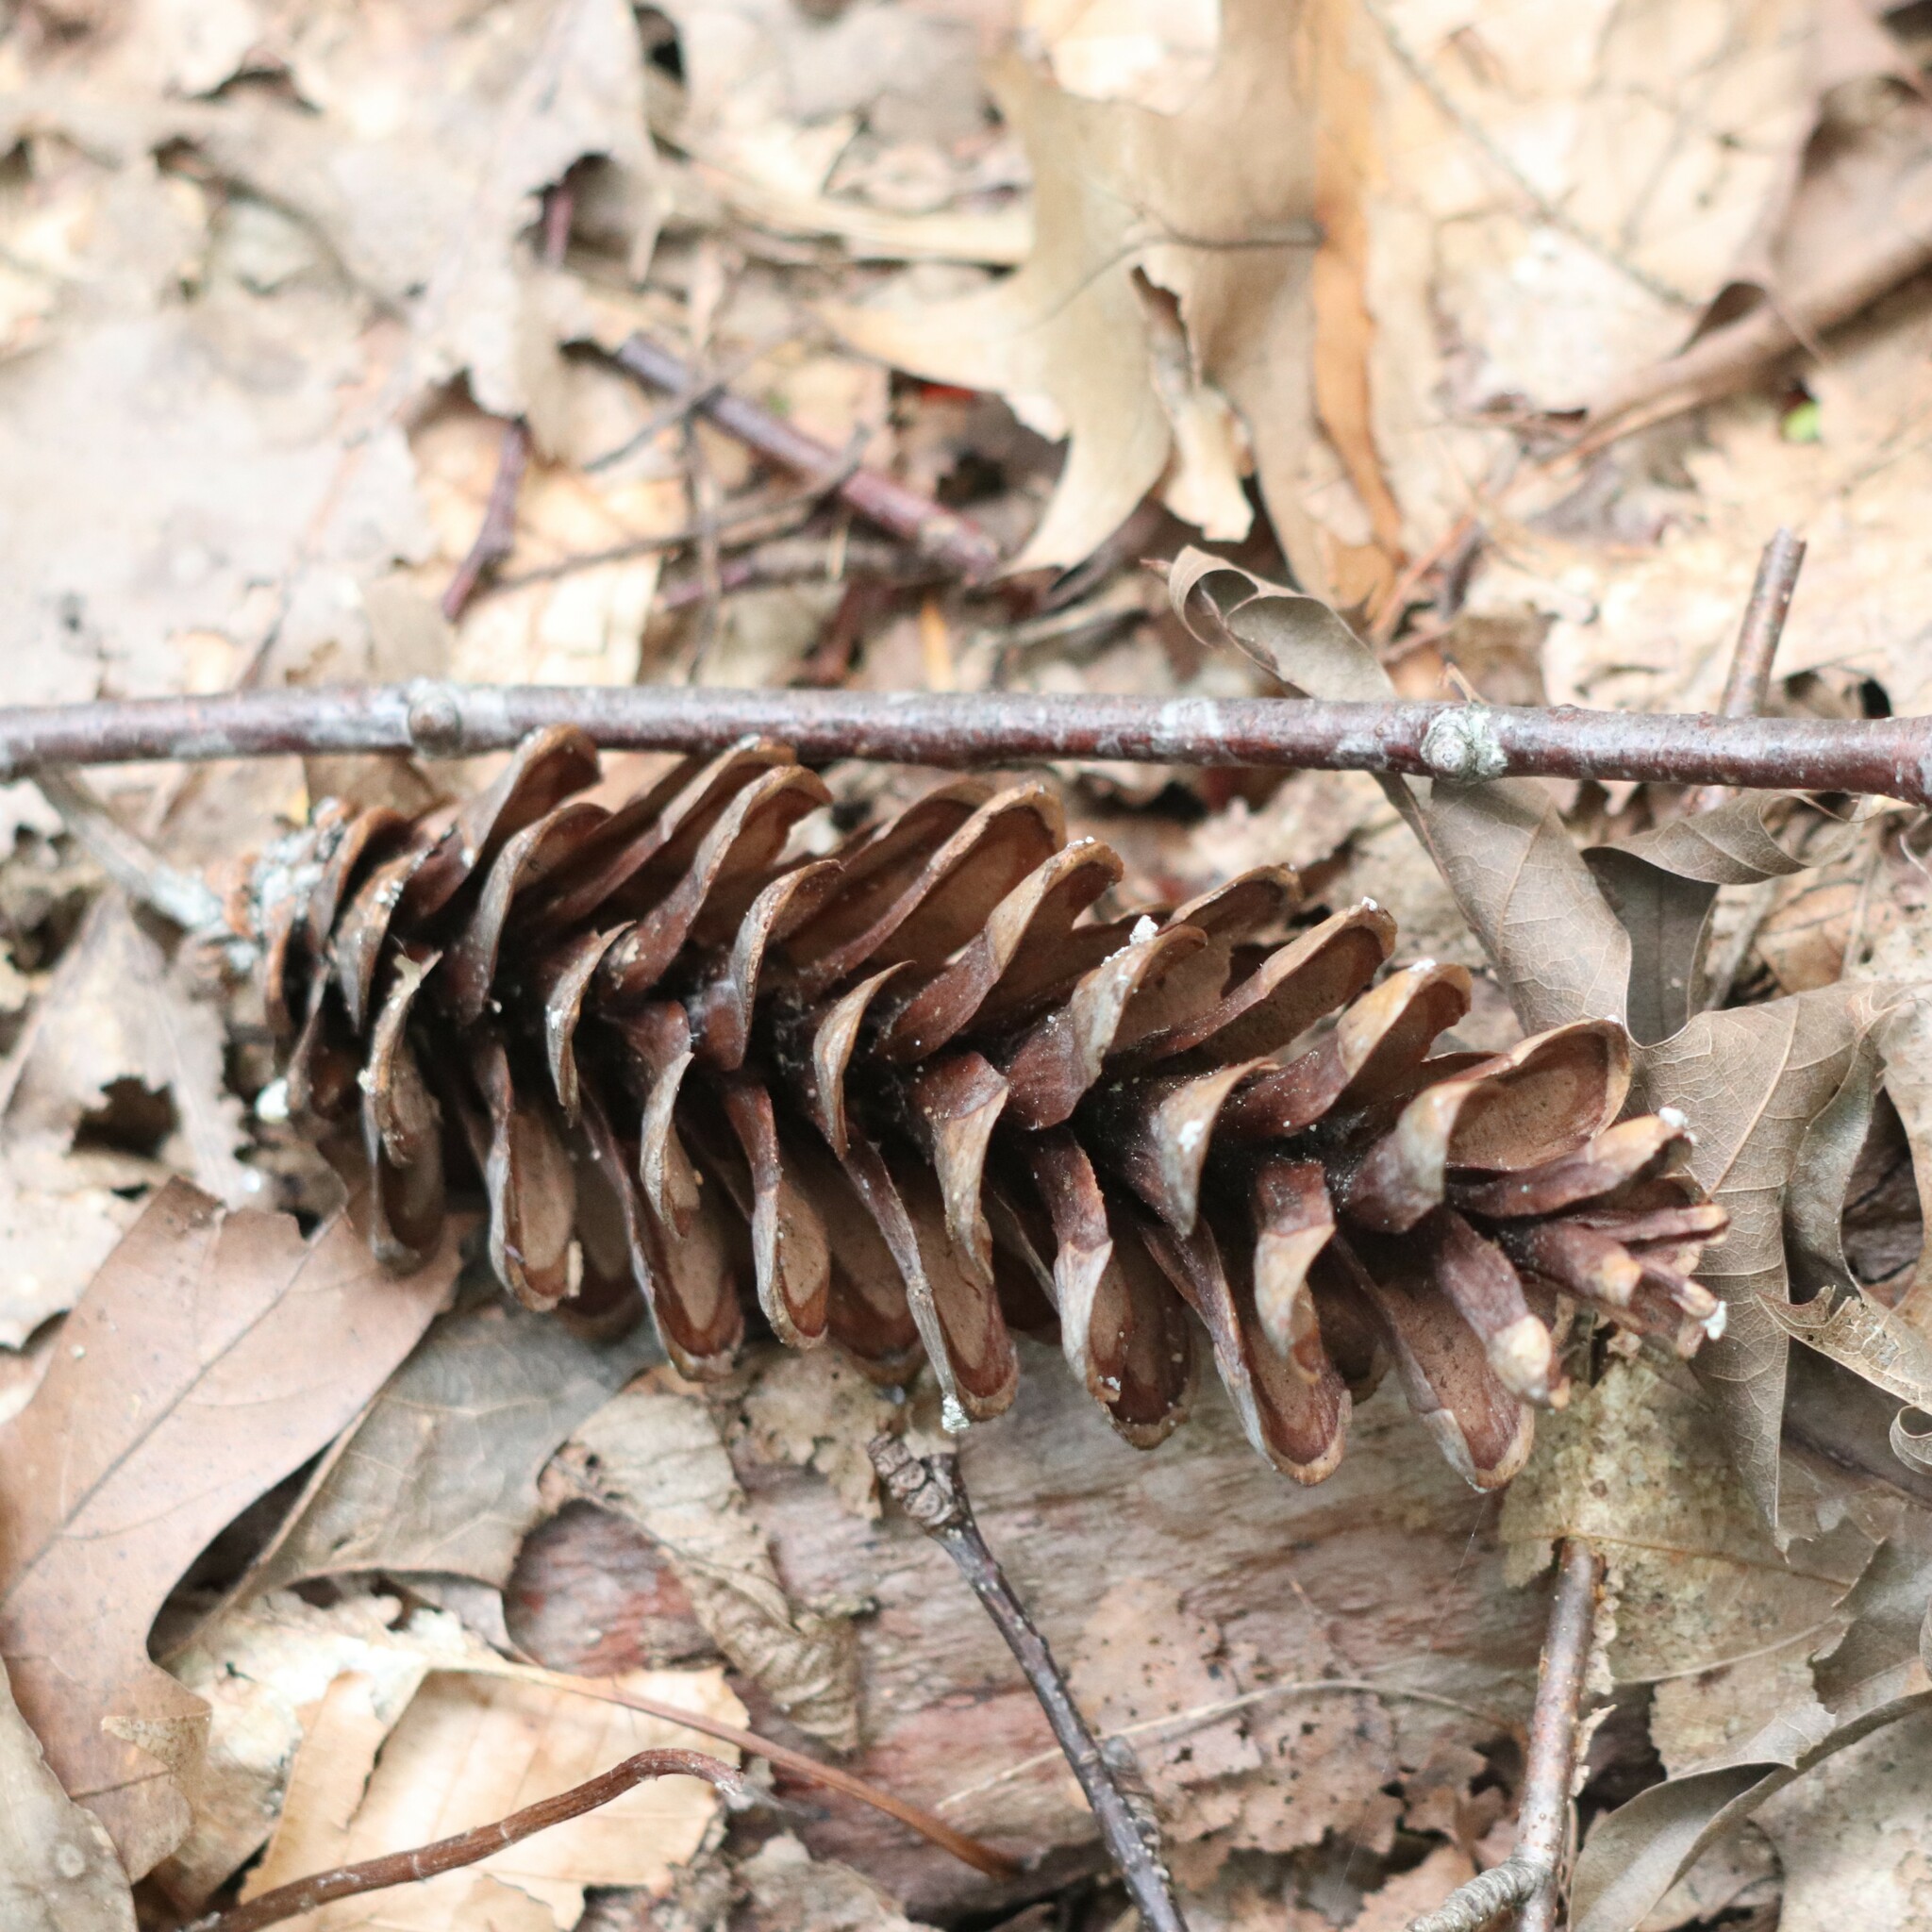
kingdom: Plantae
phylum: Tracheophyta
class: Pinopsida
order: Pinales
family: Pinaceae
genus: Pinus
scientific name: Pinus strobus
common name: Weymouth pine
